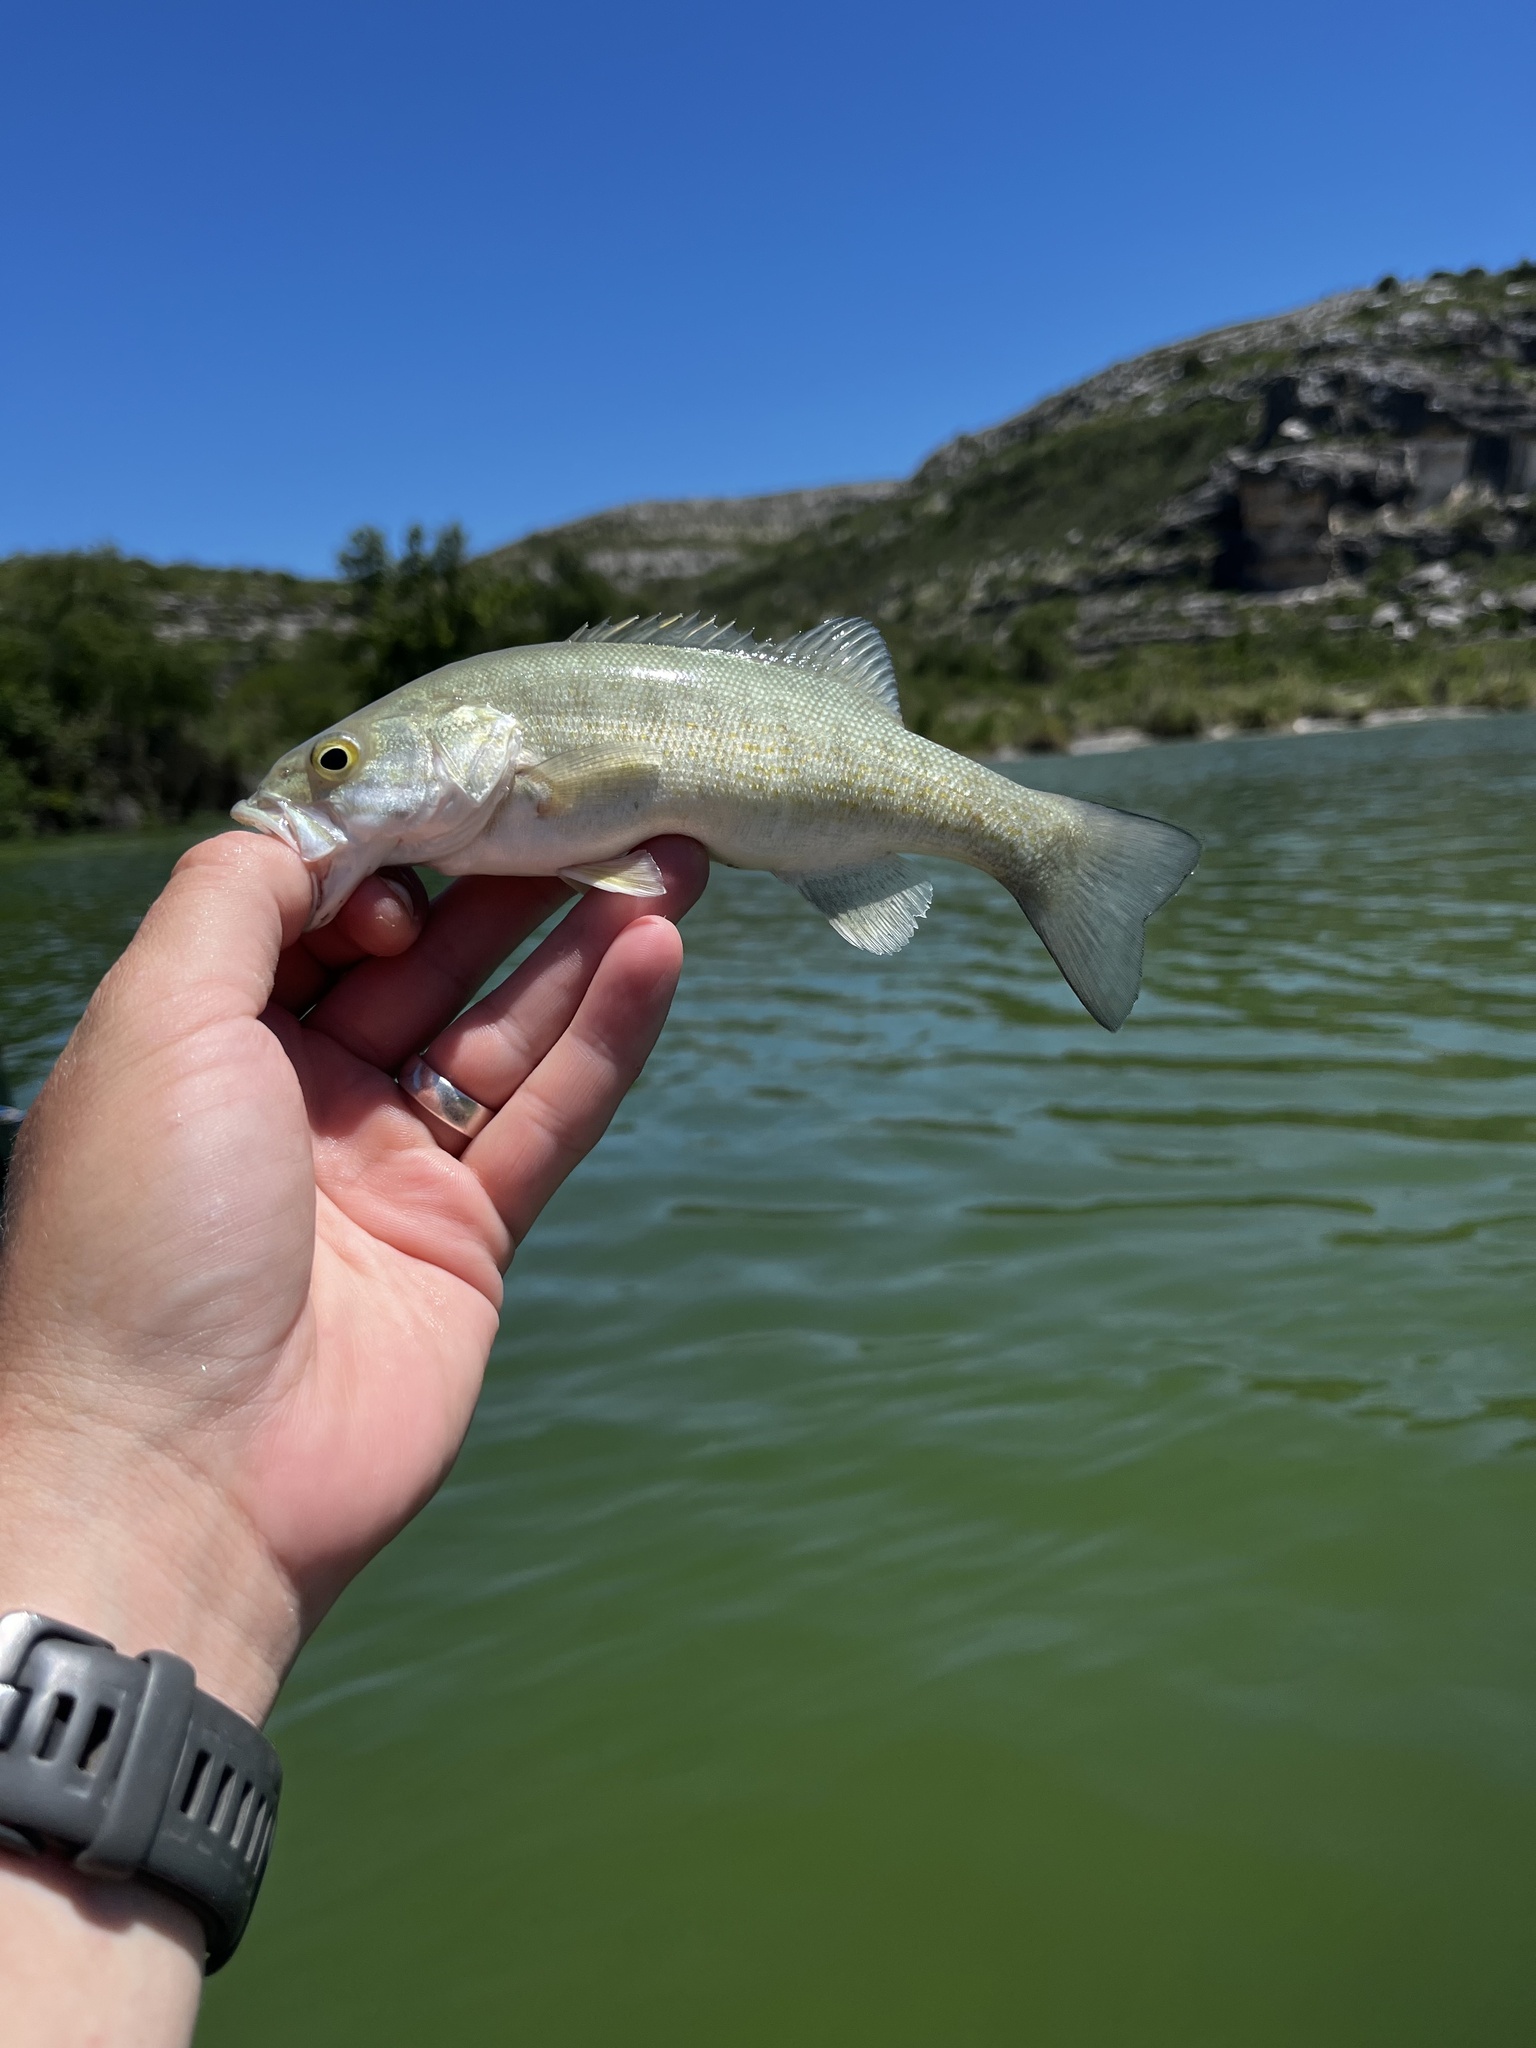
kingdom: Animalia
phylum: Chordata
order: Perciformes
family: Centrarchidae
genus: Micropterus
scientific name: Micropterus dolomieu
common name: Smallmouth bass
